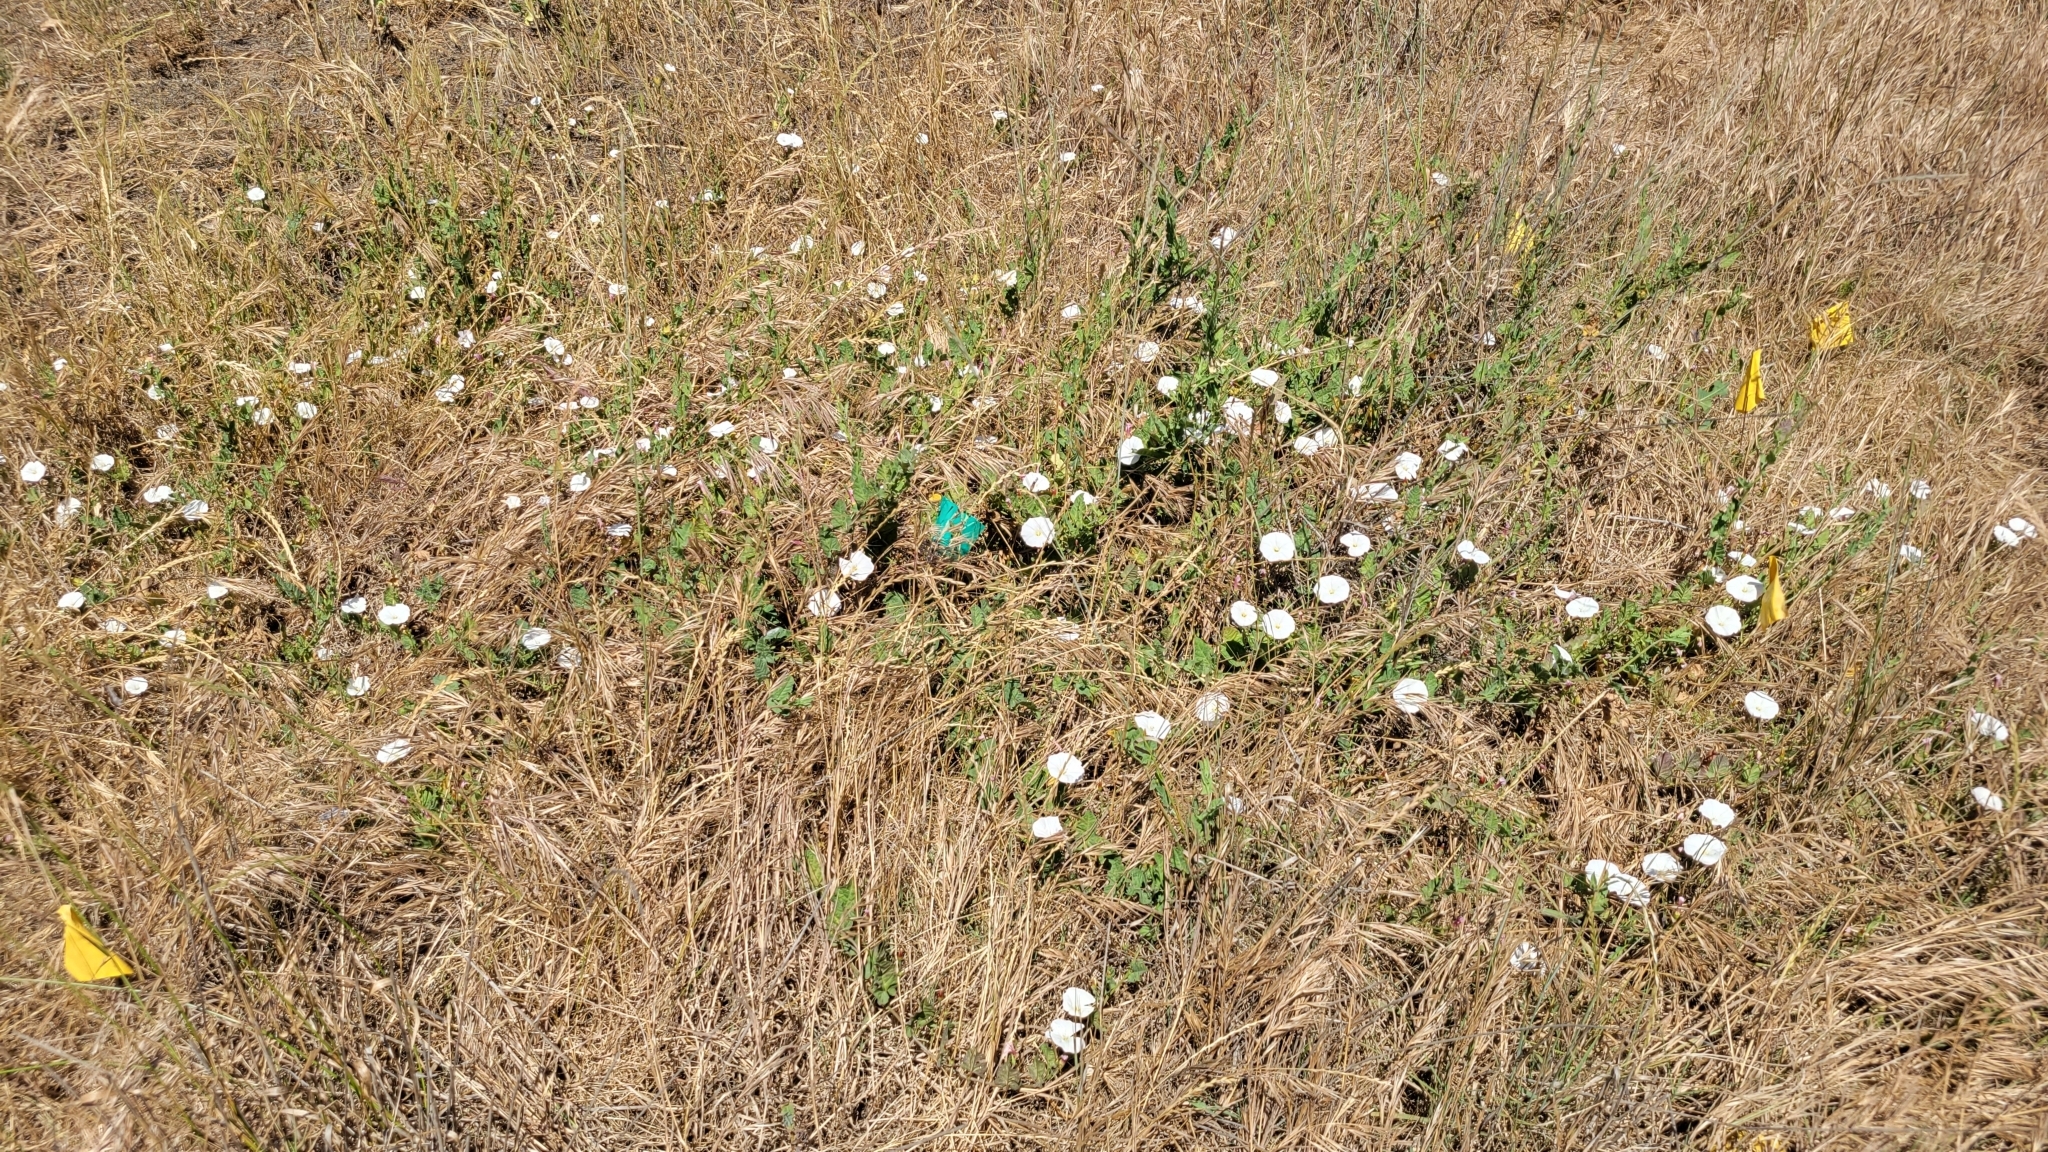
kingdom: Plantae
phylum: Tracheophyta
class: Magnoliopsida
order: Solanales
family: Convolvulaceae
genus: Convolvulus
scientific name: Convolvulus arvensis
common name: Field bindweed
